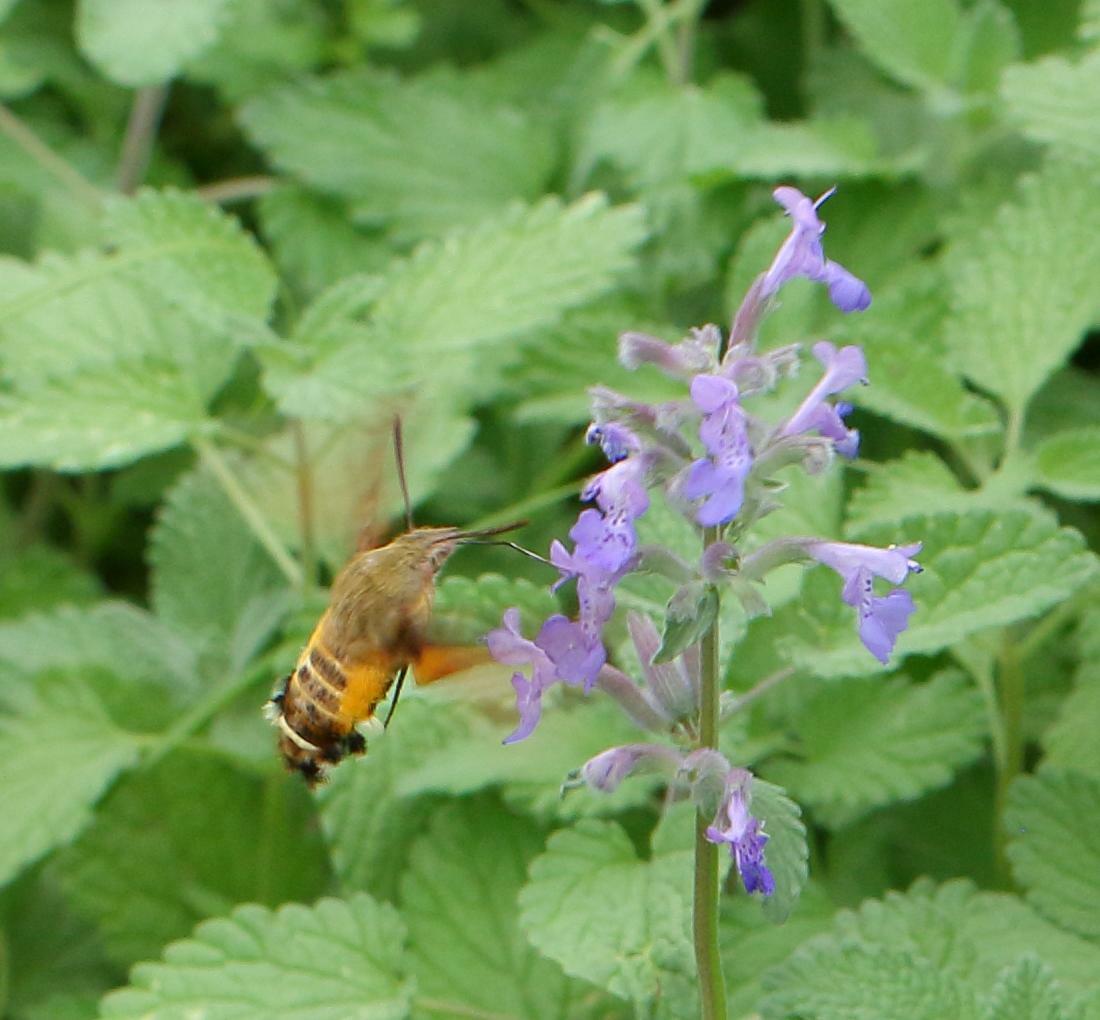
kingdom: Animalia
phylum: Arthropoda
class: Insecta
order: Lepidoptera
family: Sphingidae
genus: Macroglossum
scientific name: Macroglossum trochilus
